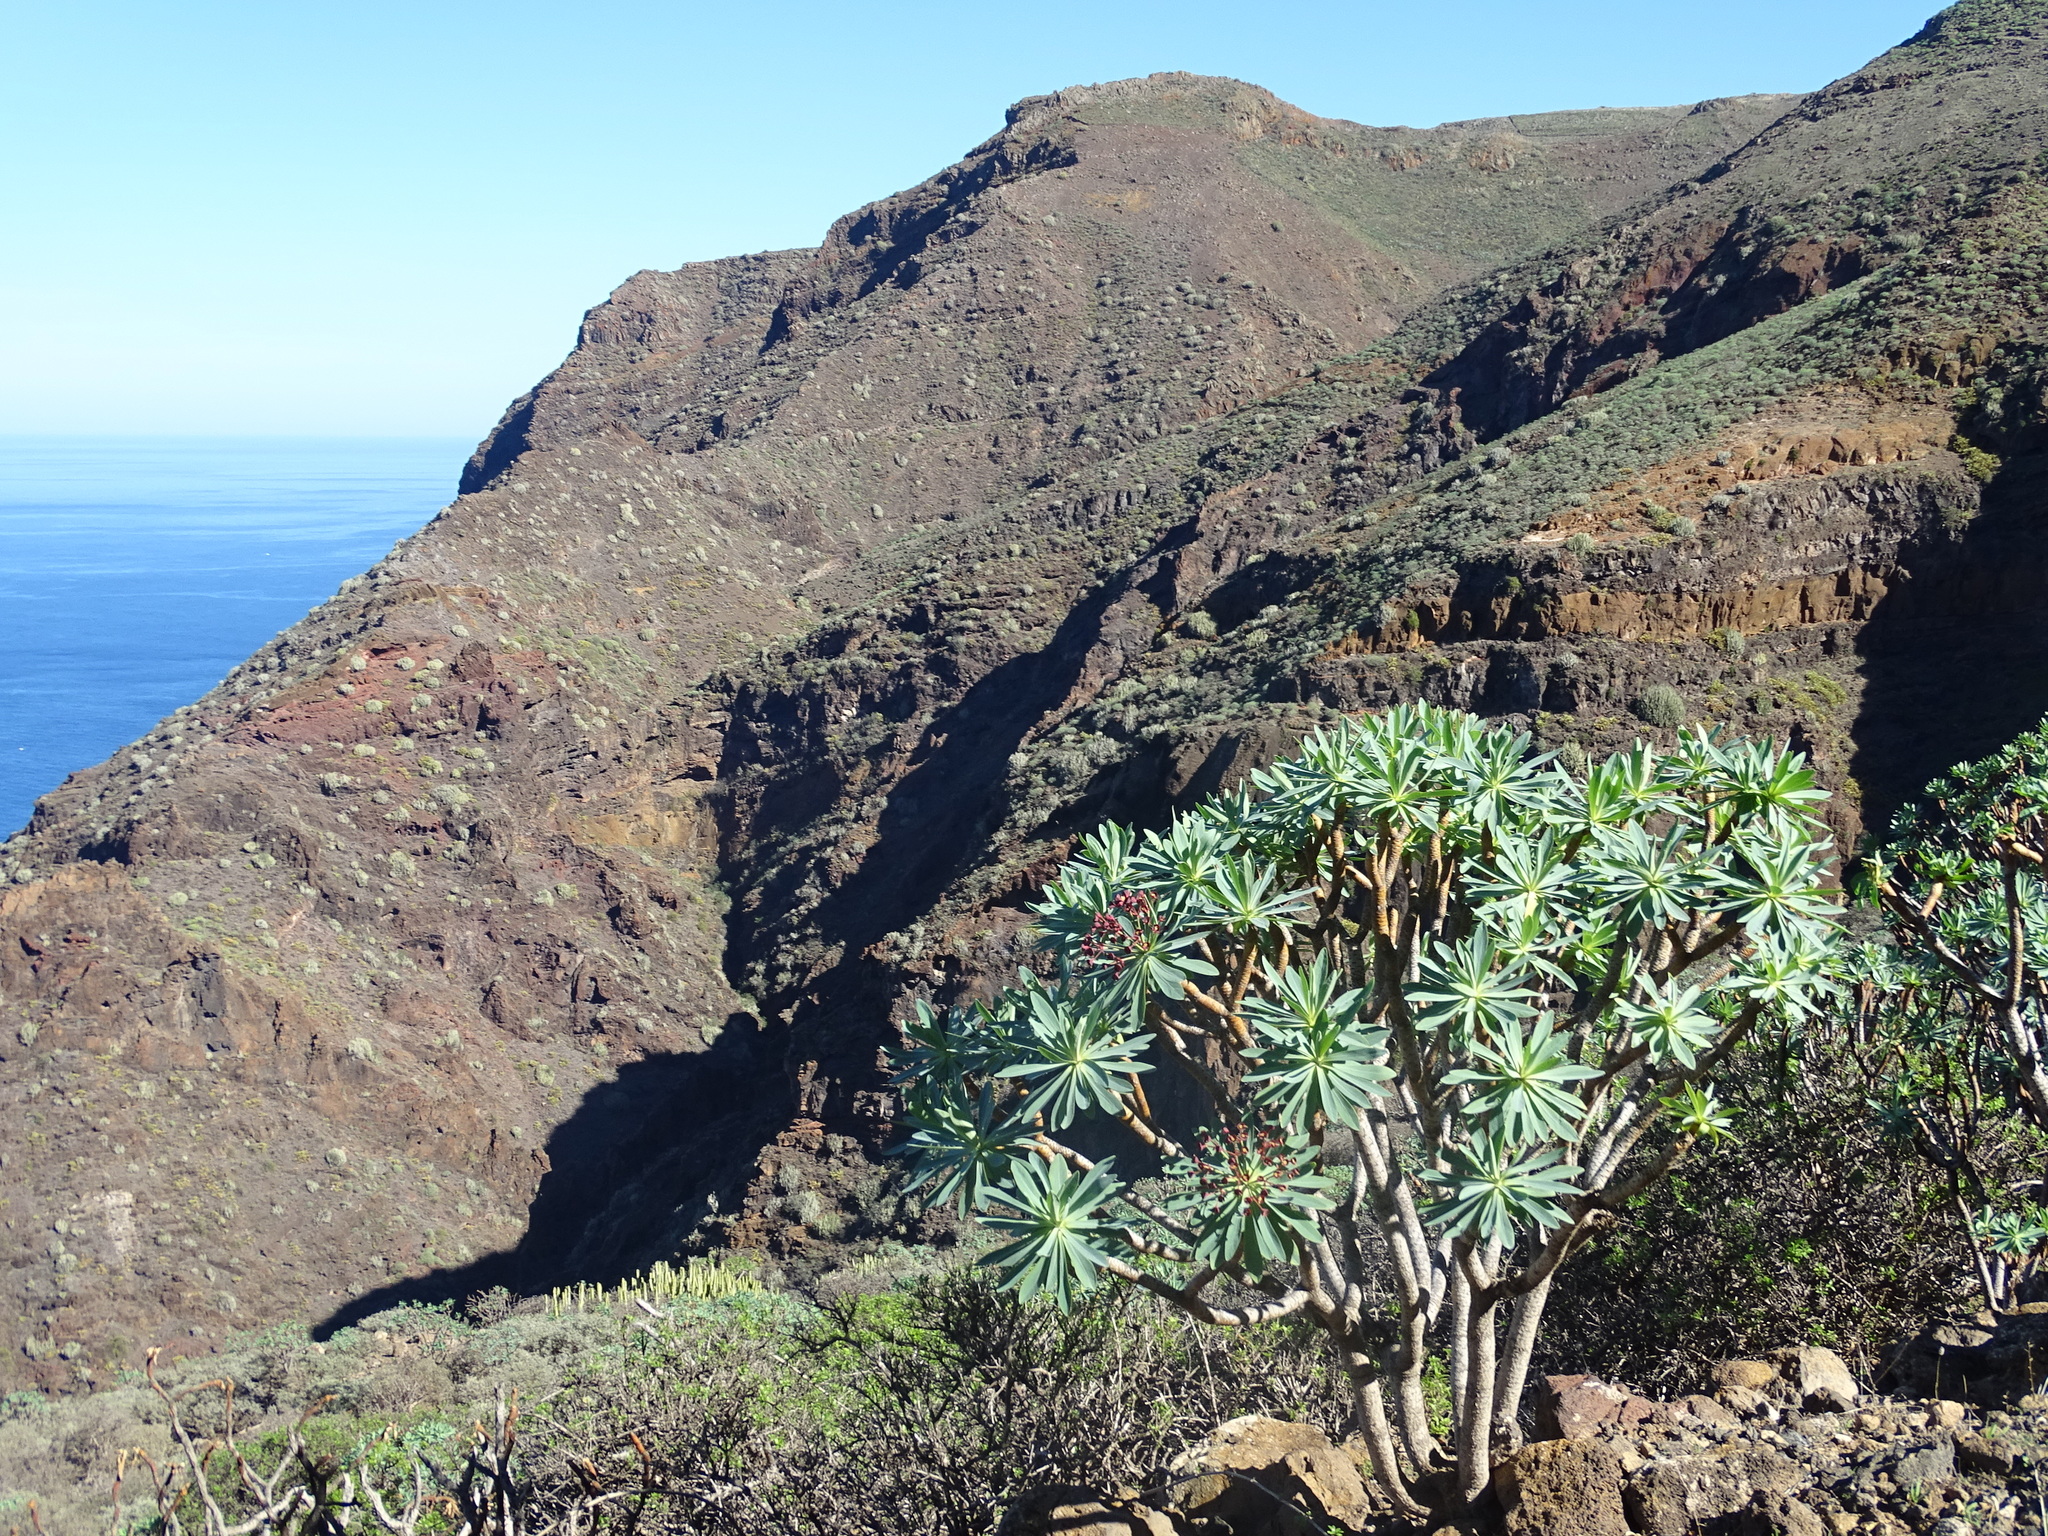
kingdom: Plantae
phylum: Tracheophyta
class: Magnoliopsida
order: Malpighiales
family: Euphorbiaceae
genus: Euphorbia
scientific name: Euphorbia atropurpurea
